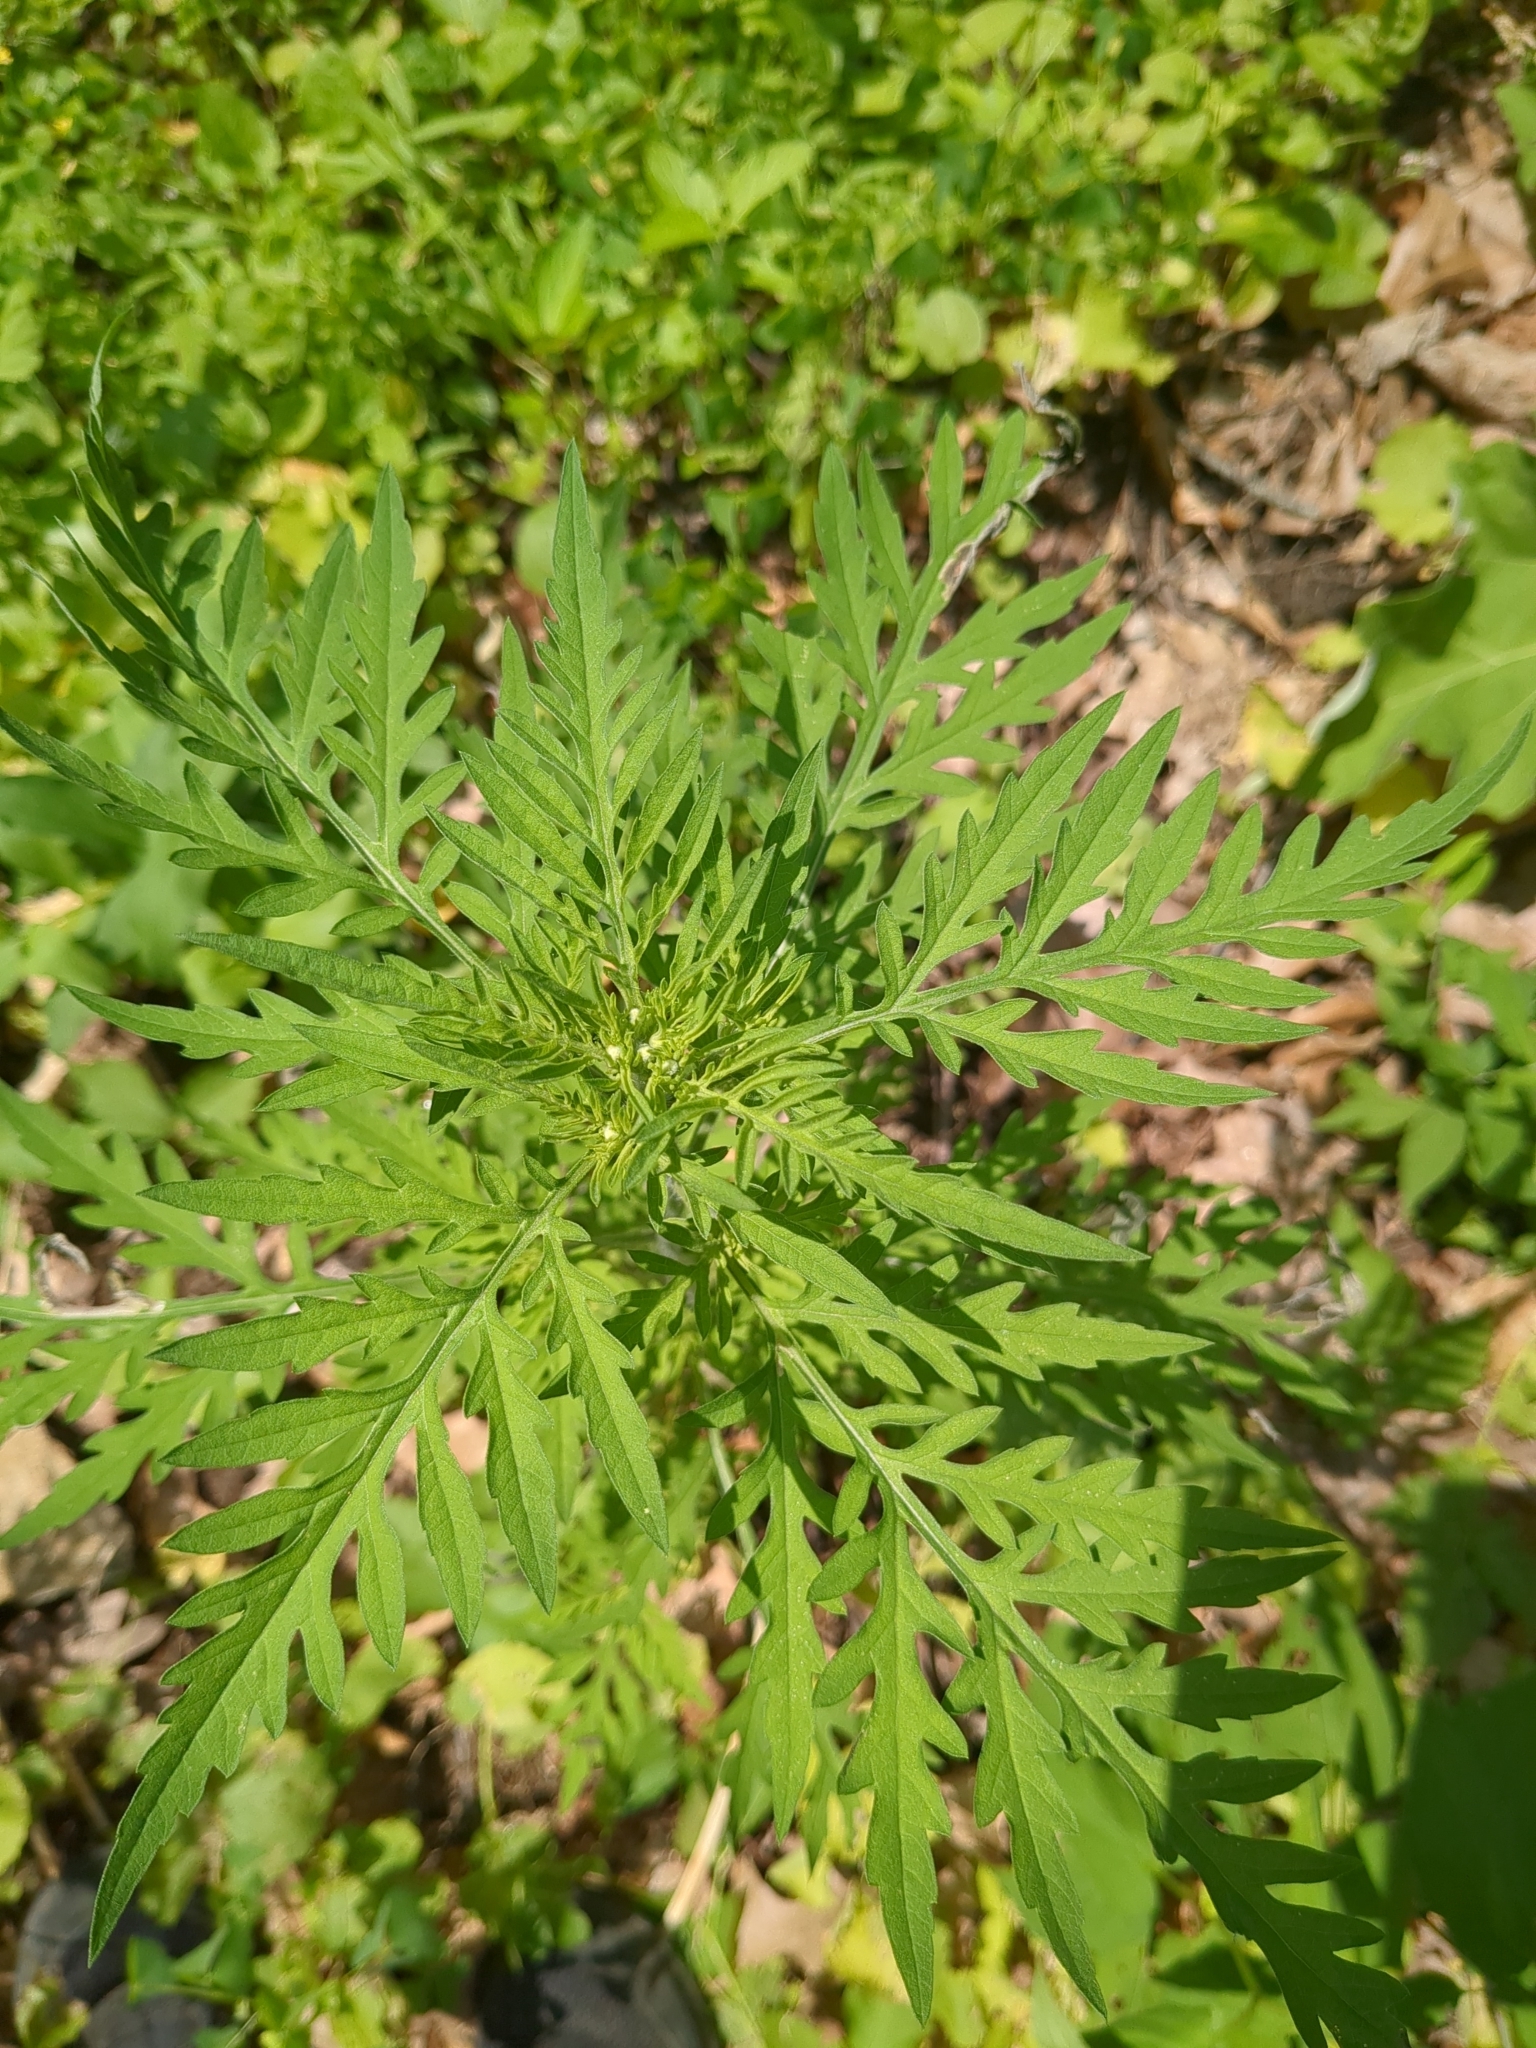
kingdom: Plantae
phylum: Tracheophyta
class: Magnoliopsida
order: Asterales
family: Asteraceae
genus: Ambrosia
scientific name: Ambrosia artemisiifolia
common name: Annual ragweed
